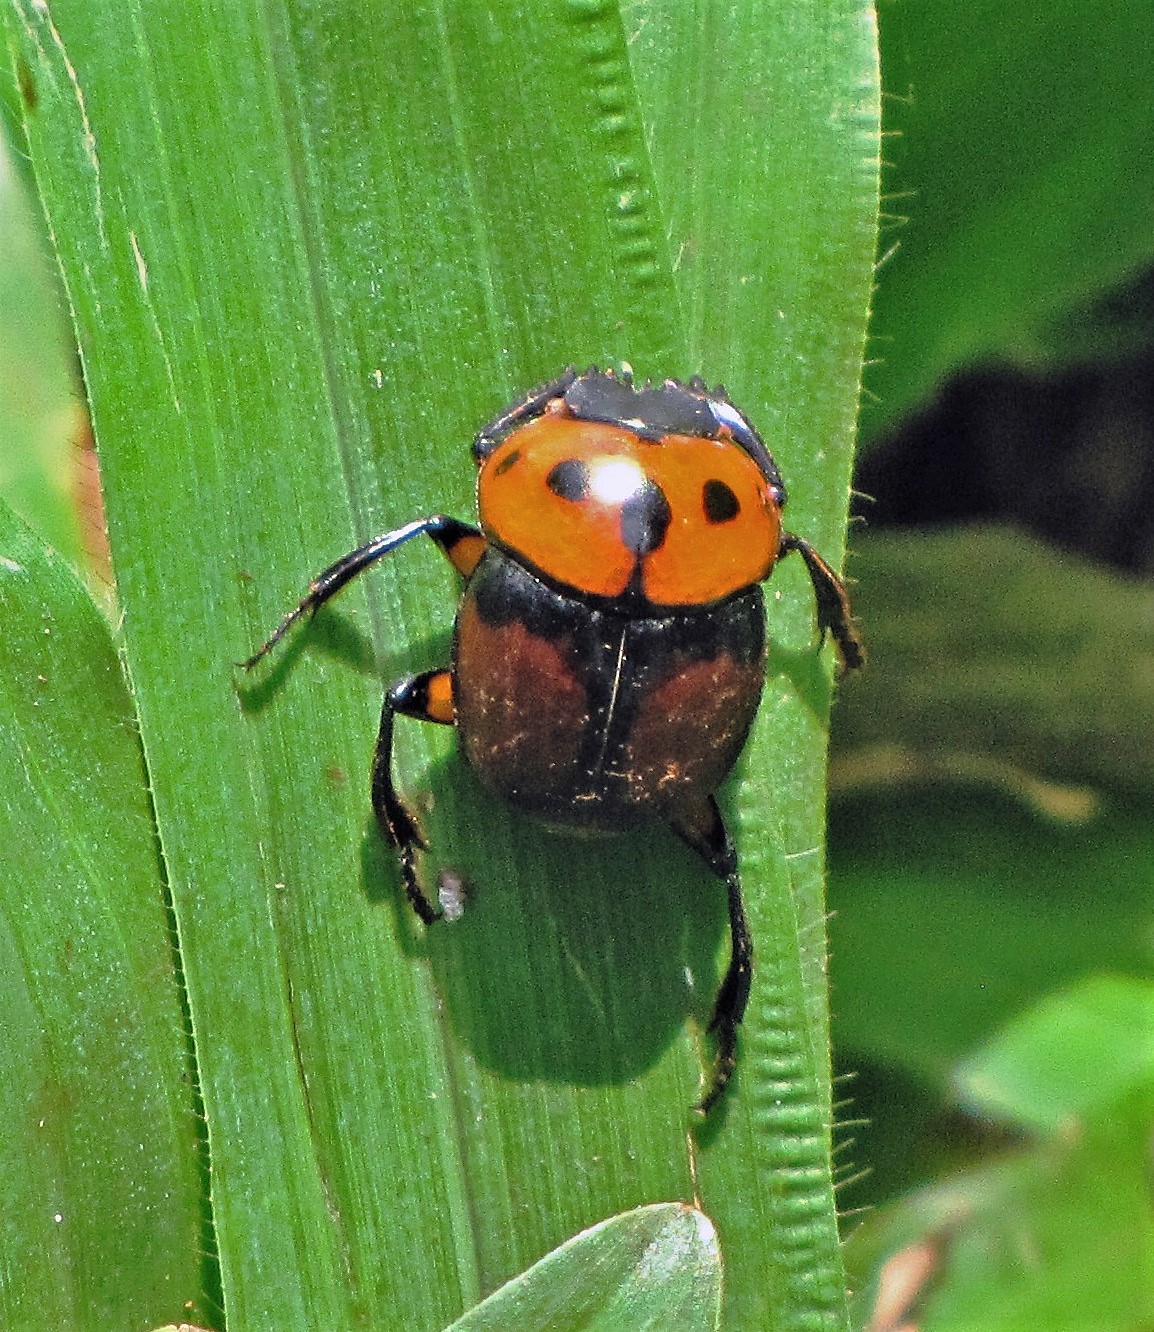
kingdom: Animalia
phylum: Arthropoda
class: Insecta
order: Coleoptera
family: Scarabaeidae
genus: Canthon
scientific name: Canthon quinquemaculatus
